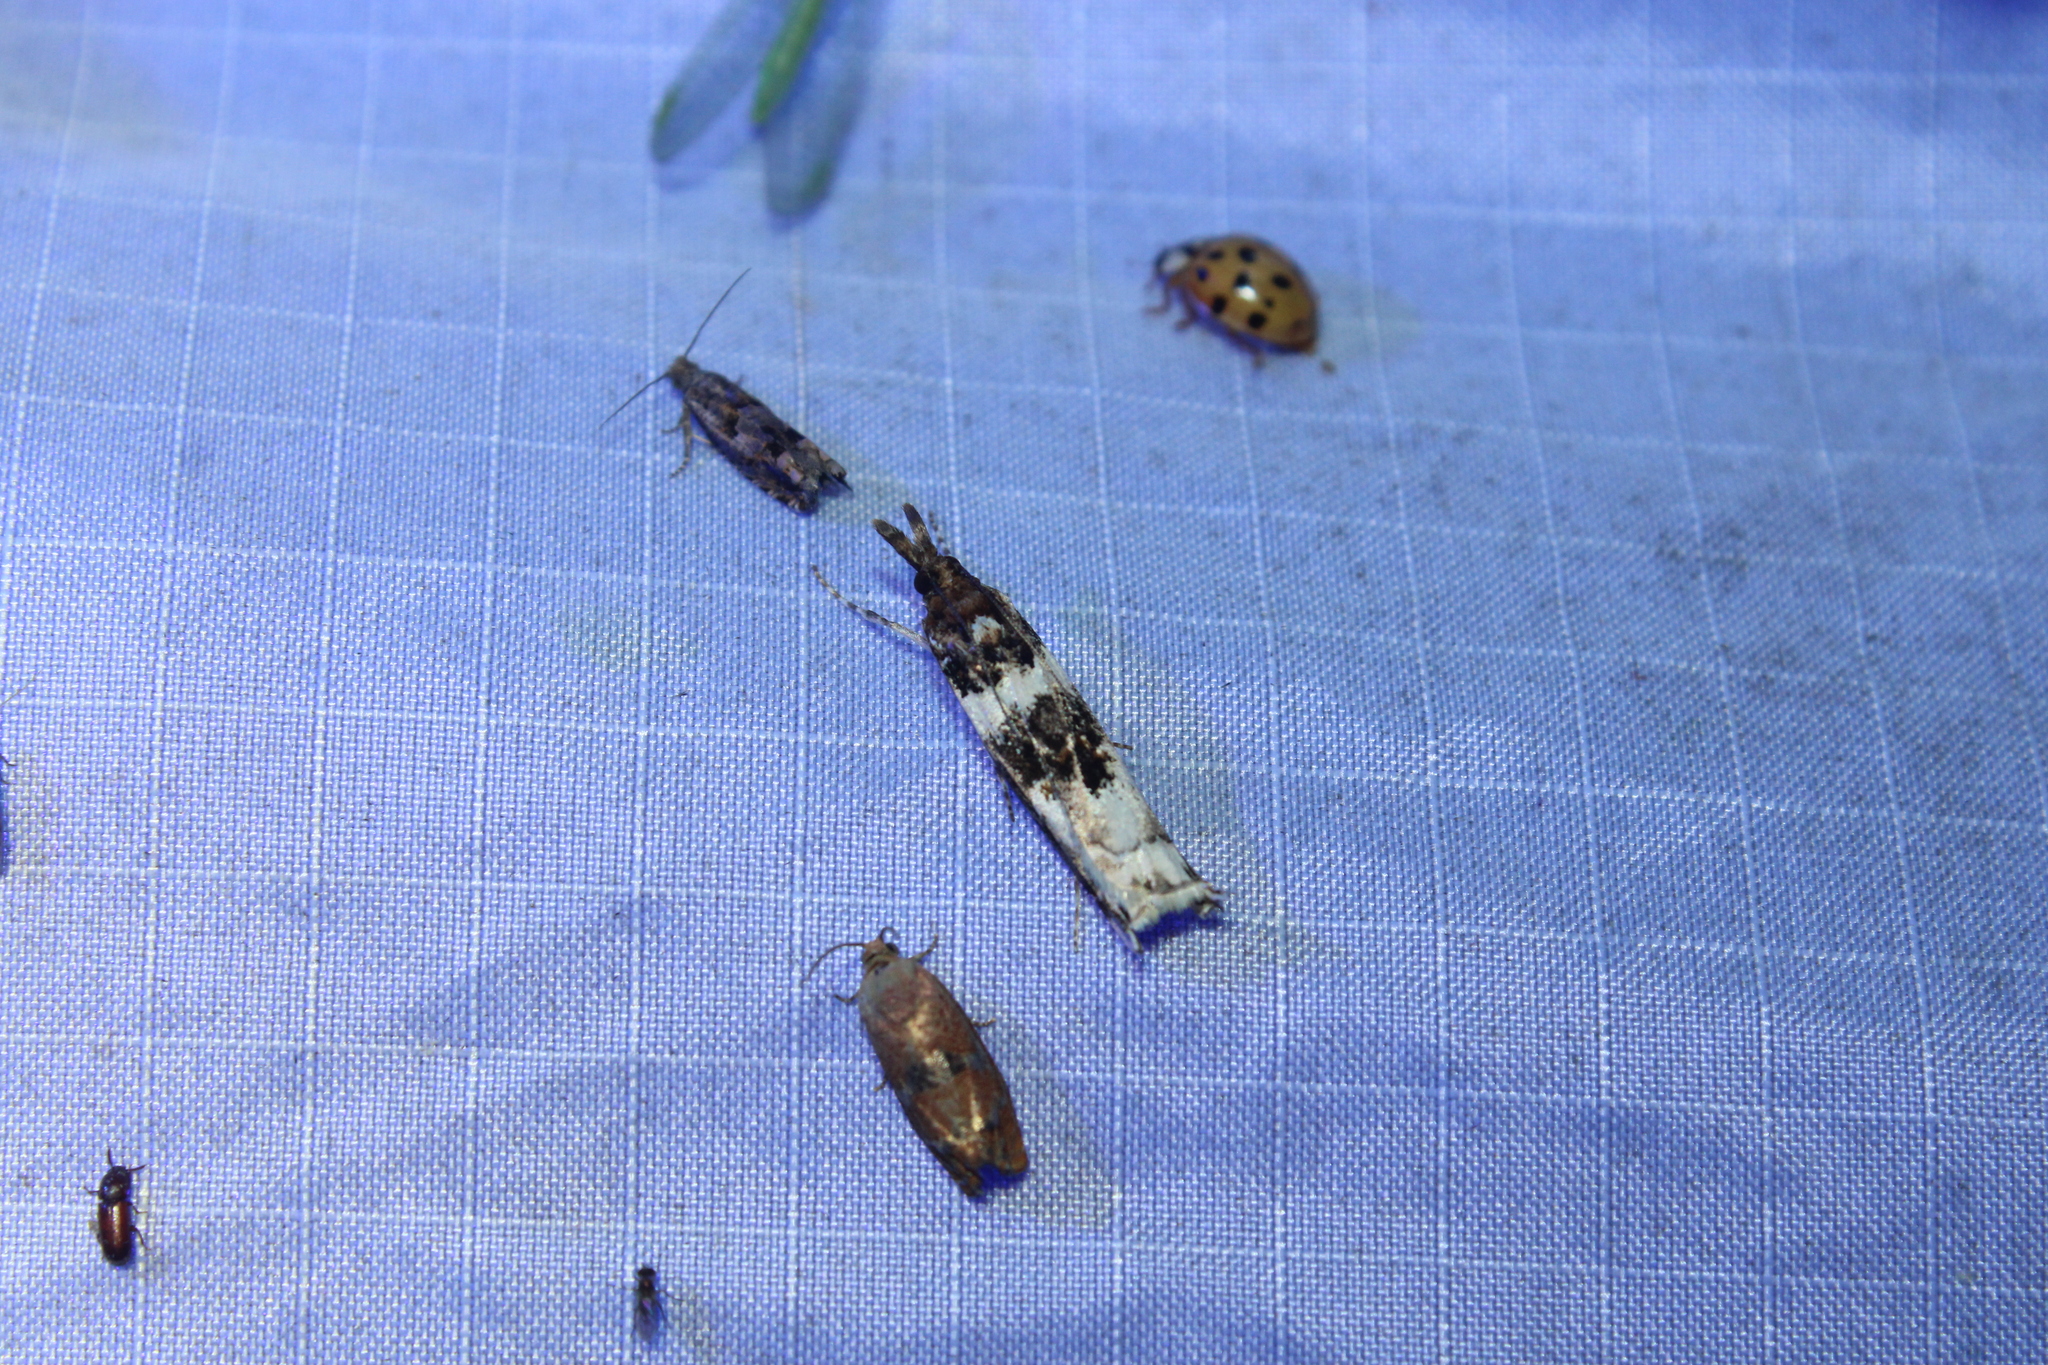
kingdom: Animalia
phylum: Arthropoda
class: Insecta
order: Lepidoptera
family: Crambidae
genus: Prionapteryx
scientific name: Prionapteryx nebulifera
